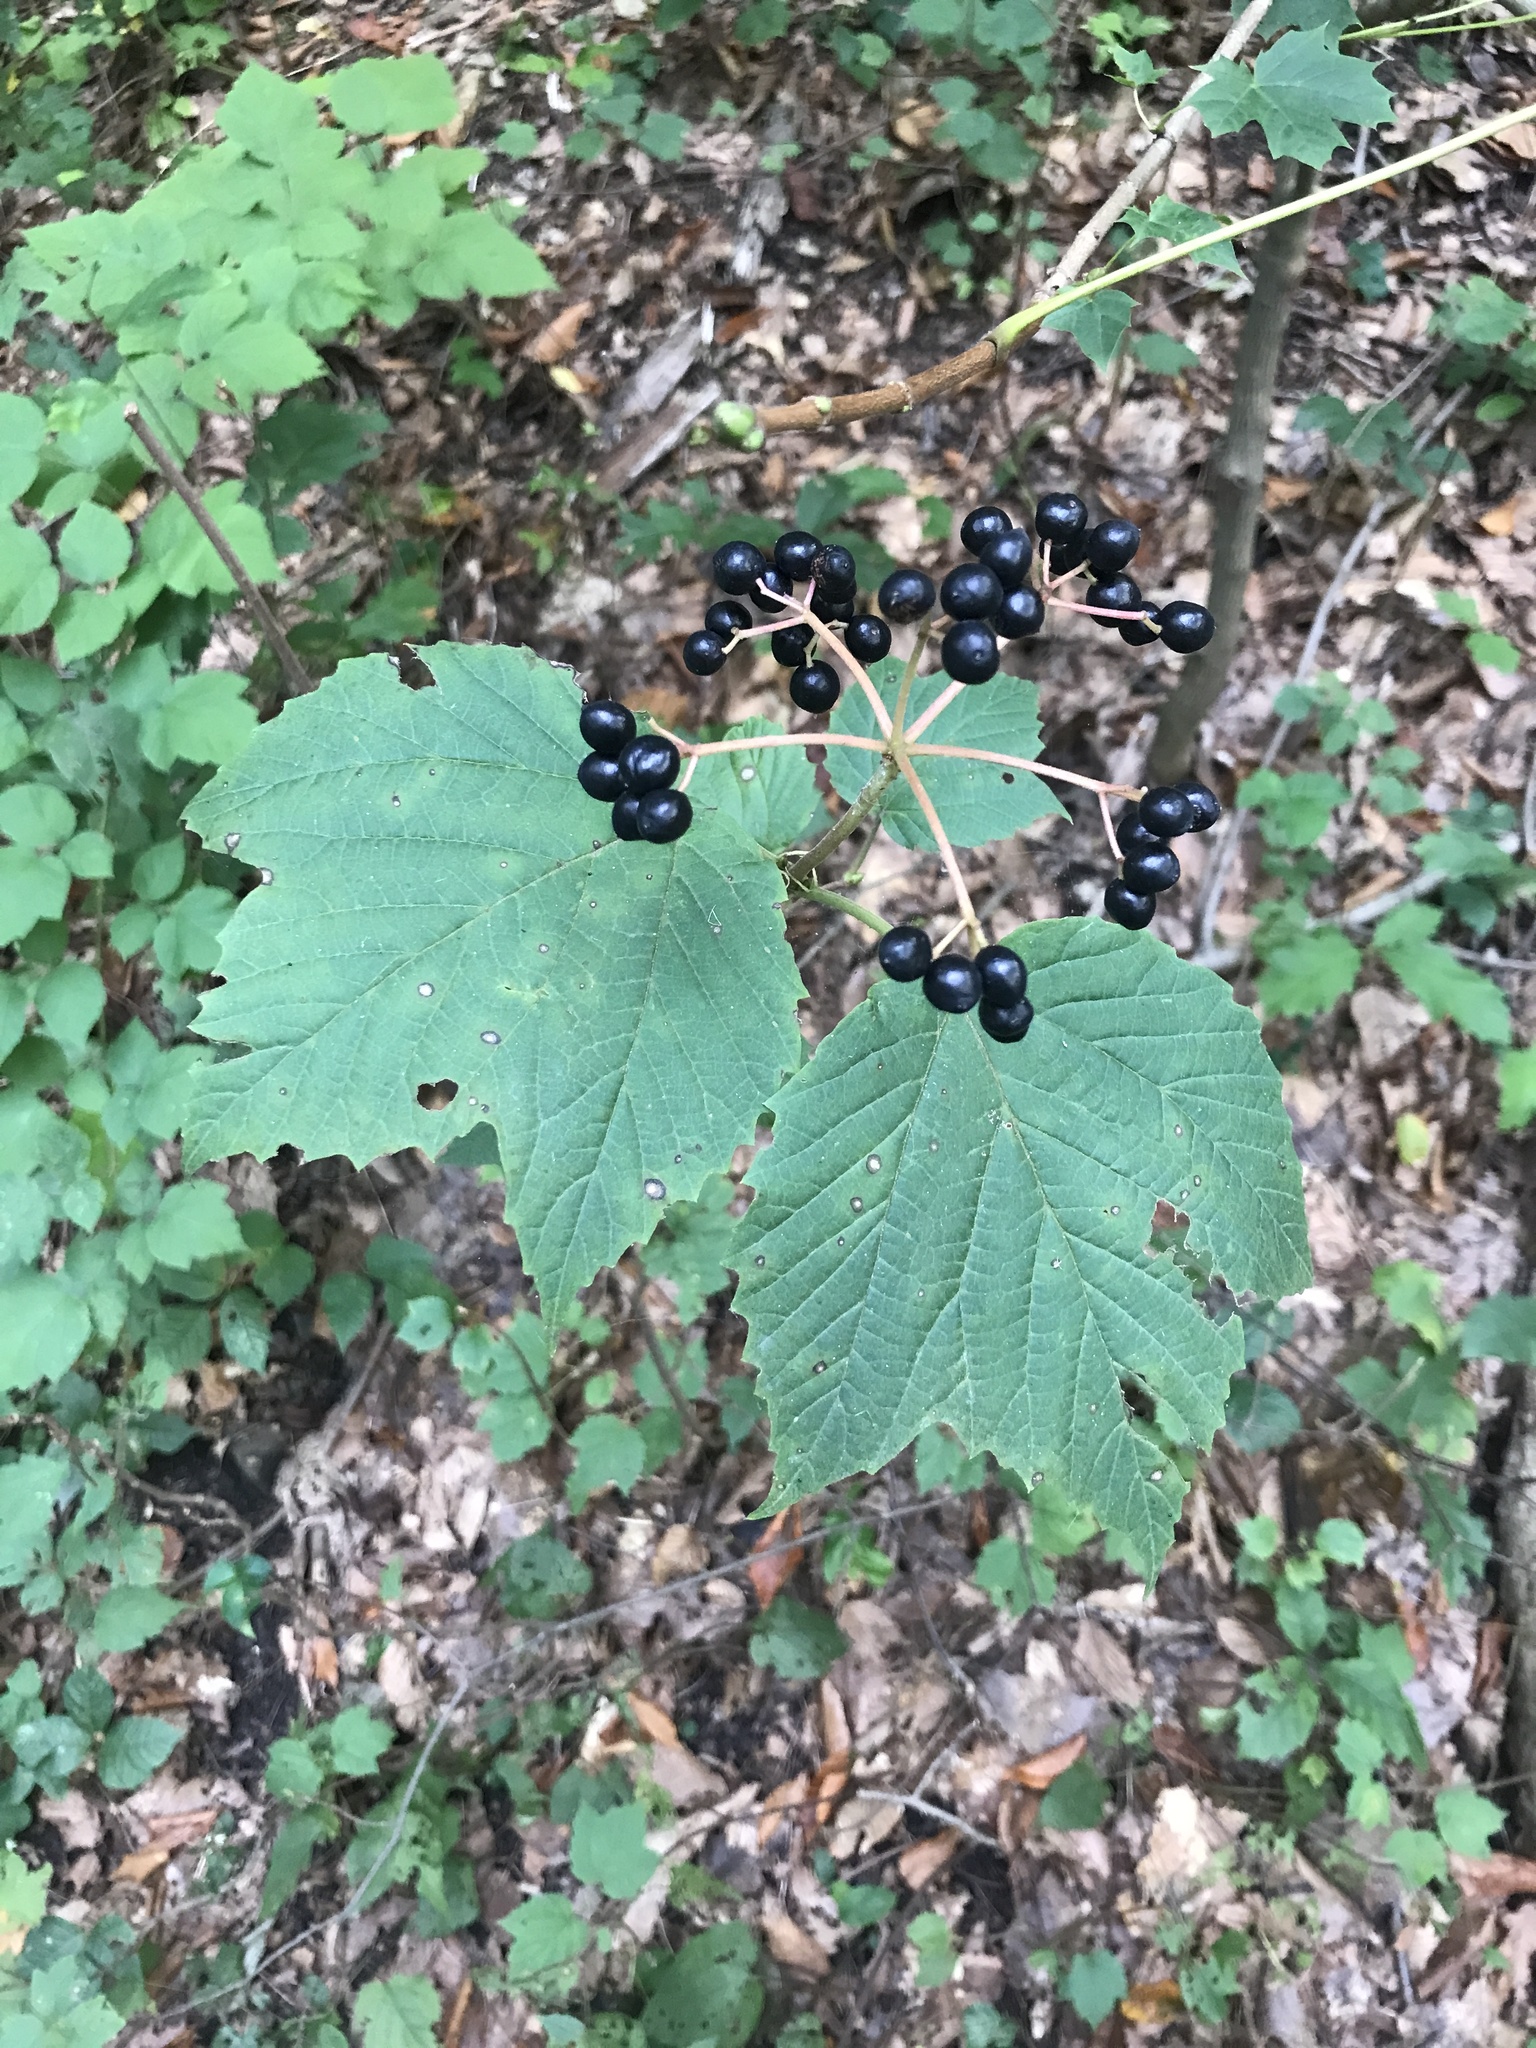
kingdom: Plantae
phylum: Tracheophyta
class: Magnoliopsida
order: Dipsacales
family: Viburnaceae
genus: Viburnum
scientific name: Viburnum acerifolium
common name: Dockmackie
